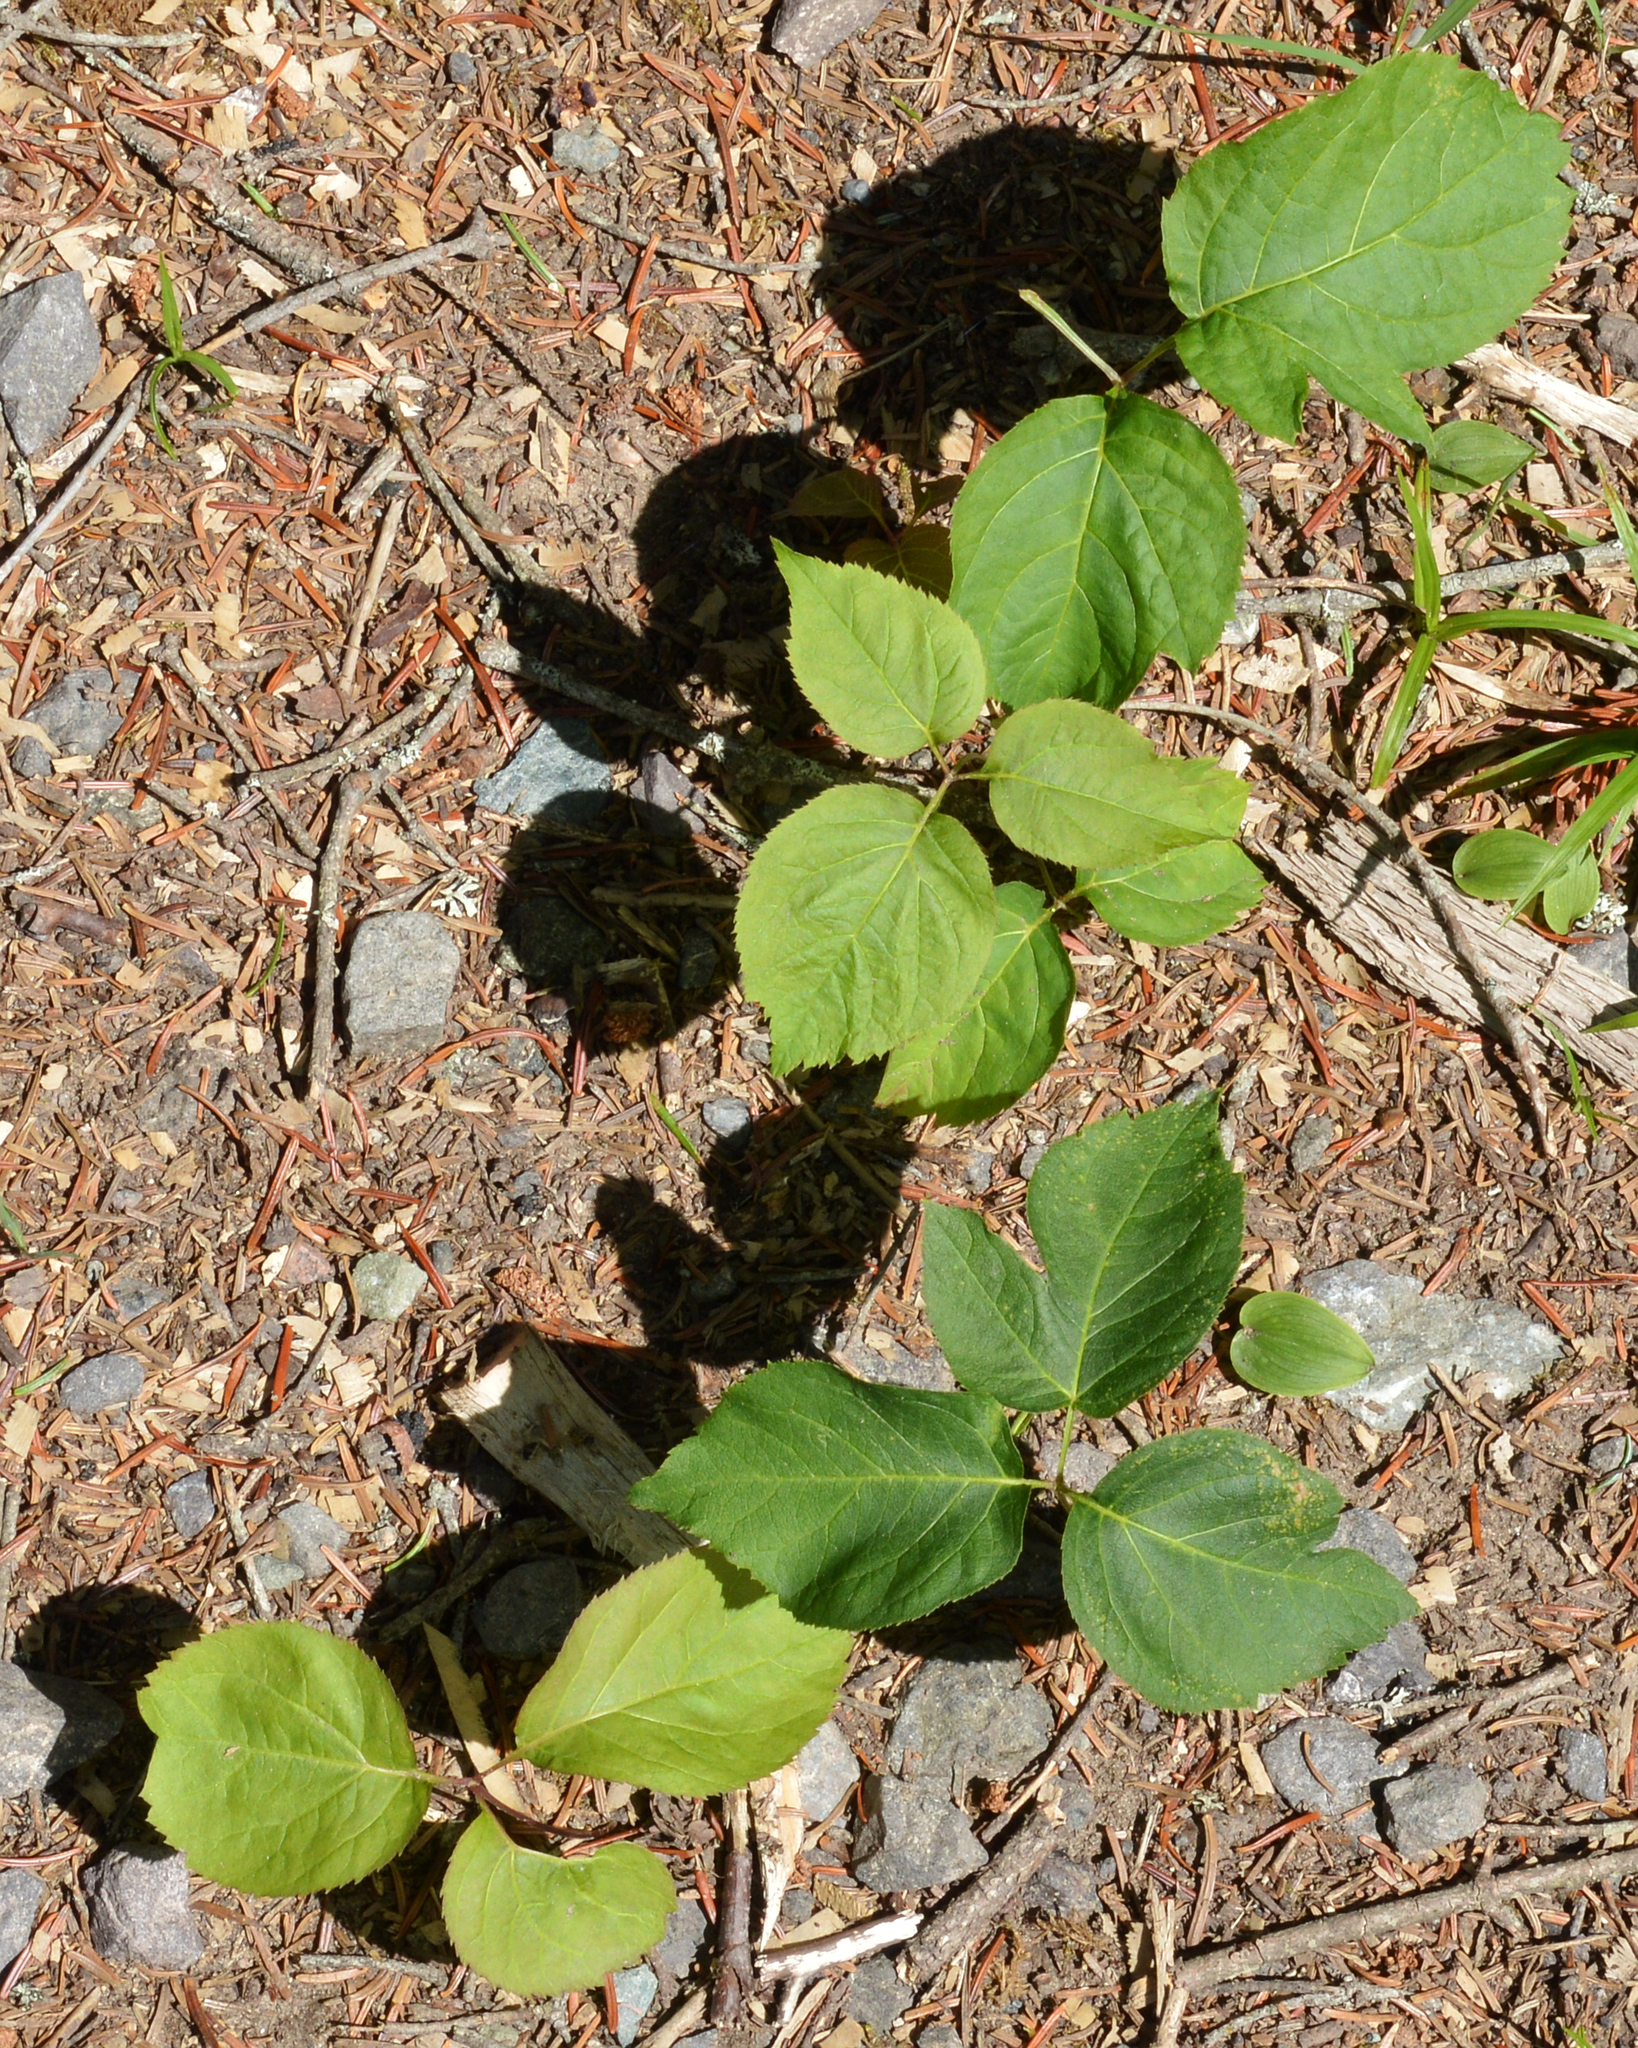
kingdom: Plantae
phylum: Tracheophyta
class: Magnoliopsida
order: Apiales
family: Araliaceae
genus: Aralia
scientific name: Aralia nudicaulis
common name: Wild sarsaparilla
